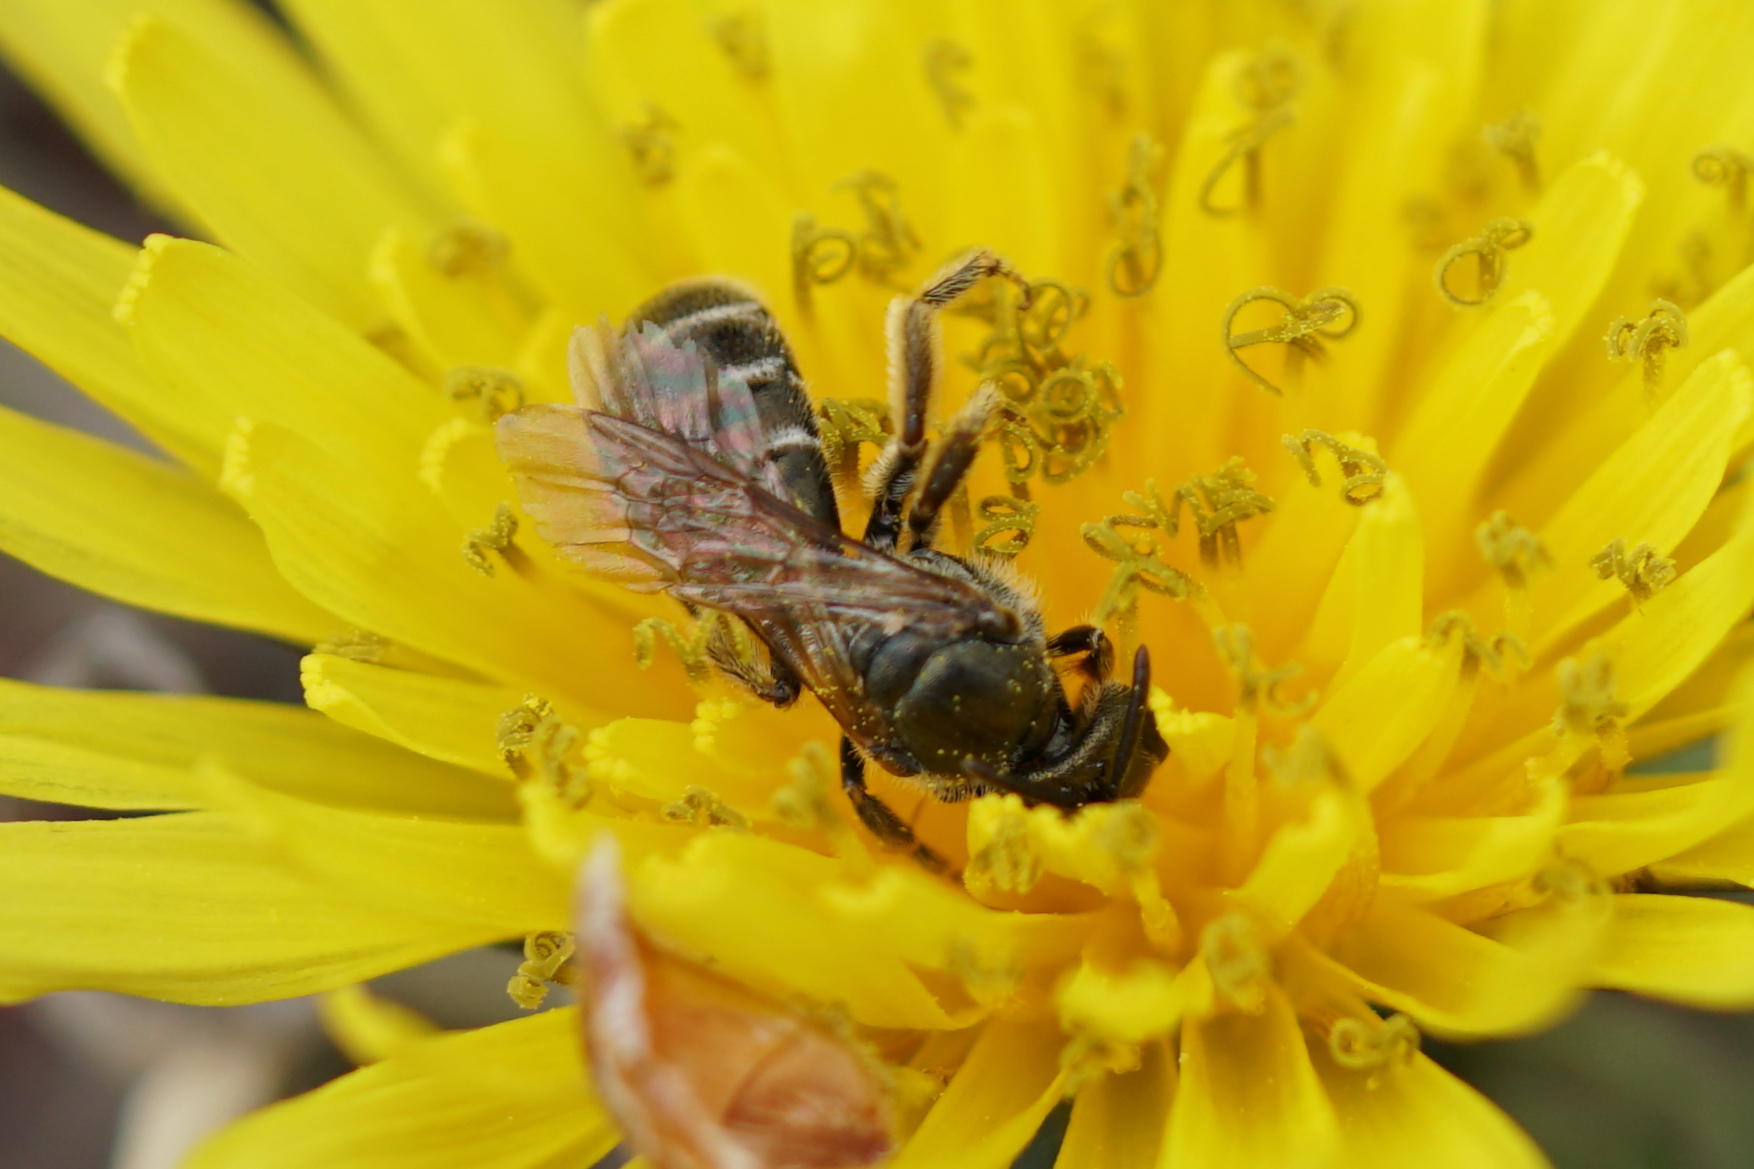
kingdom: Animalia
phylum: Arthropoda
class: Insecta
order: Hymenoptera
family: Halictidae
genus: Halictus
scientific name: Halictus confusus
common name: Southern bronze furrow bee
